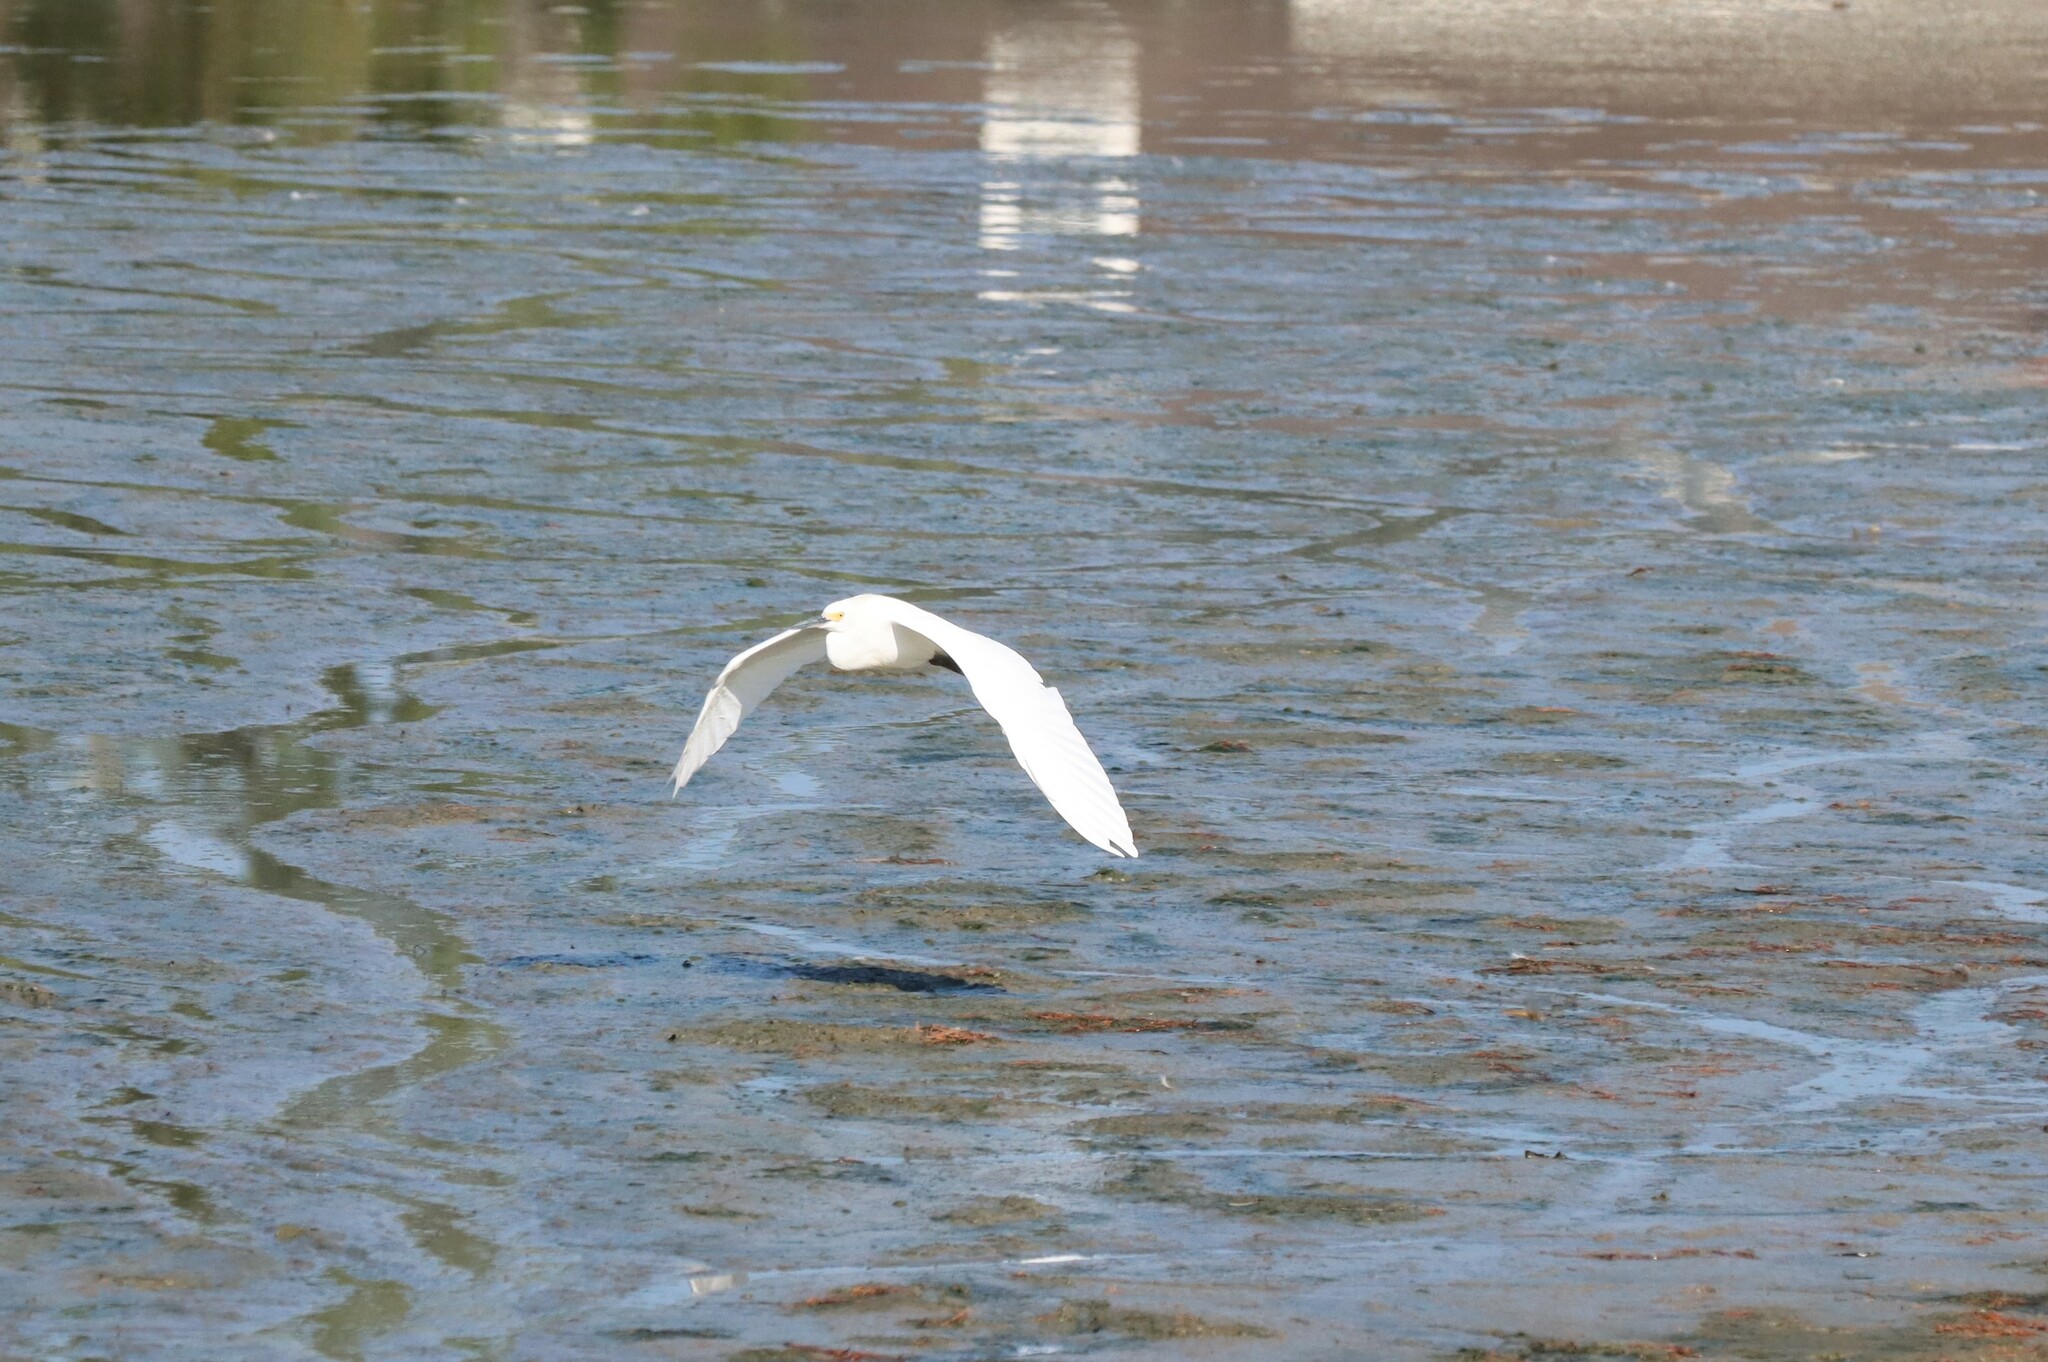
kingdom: Animalia
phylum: Chordata
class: Aves
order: Pelecaniformes
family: Ardeidae
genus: Egretta
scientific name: Egretta thula
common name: Snowy egret
